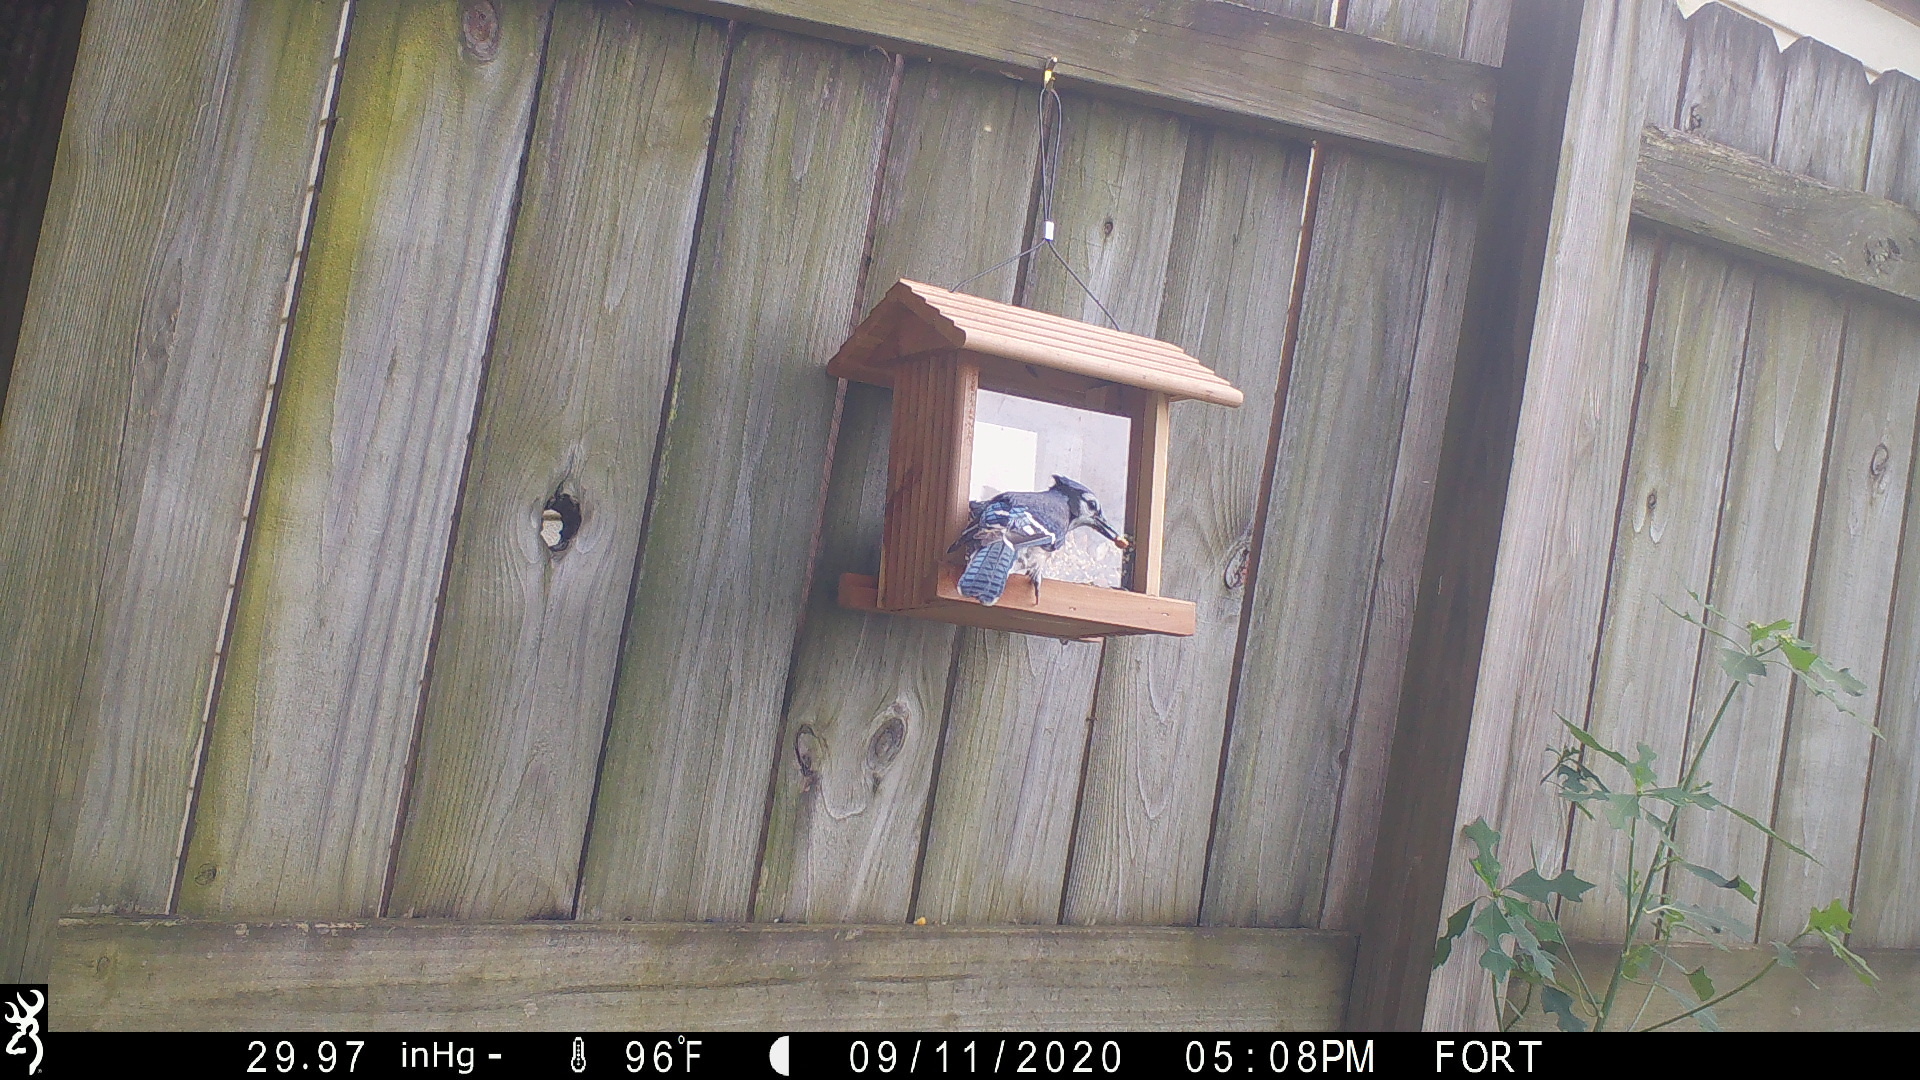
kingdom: Animalia
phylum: Chordata
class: Aves
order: Passeriformes
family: Corvidae
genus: Cyanocitta
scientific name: Cyanocitta cristata
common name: Blue jay
